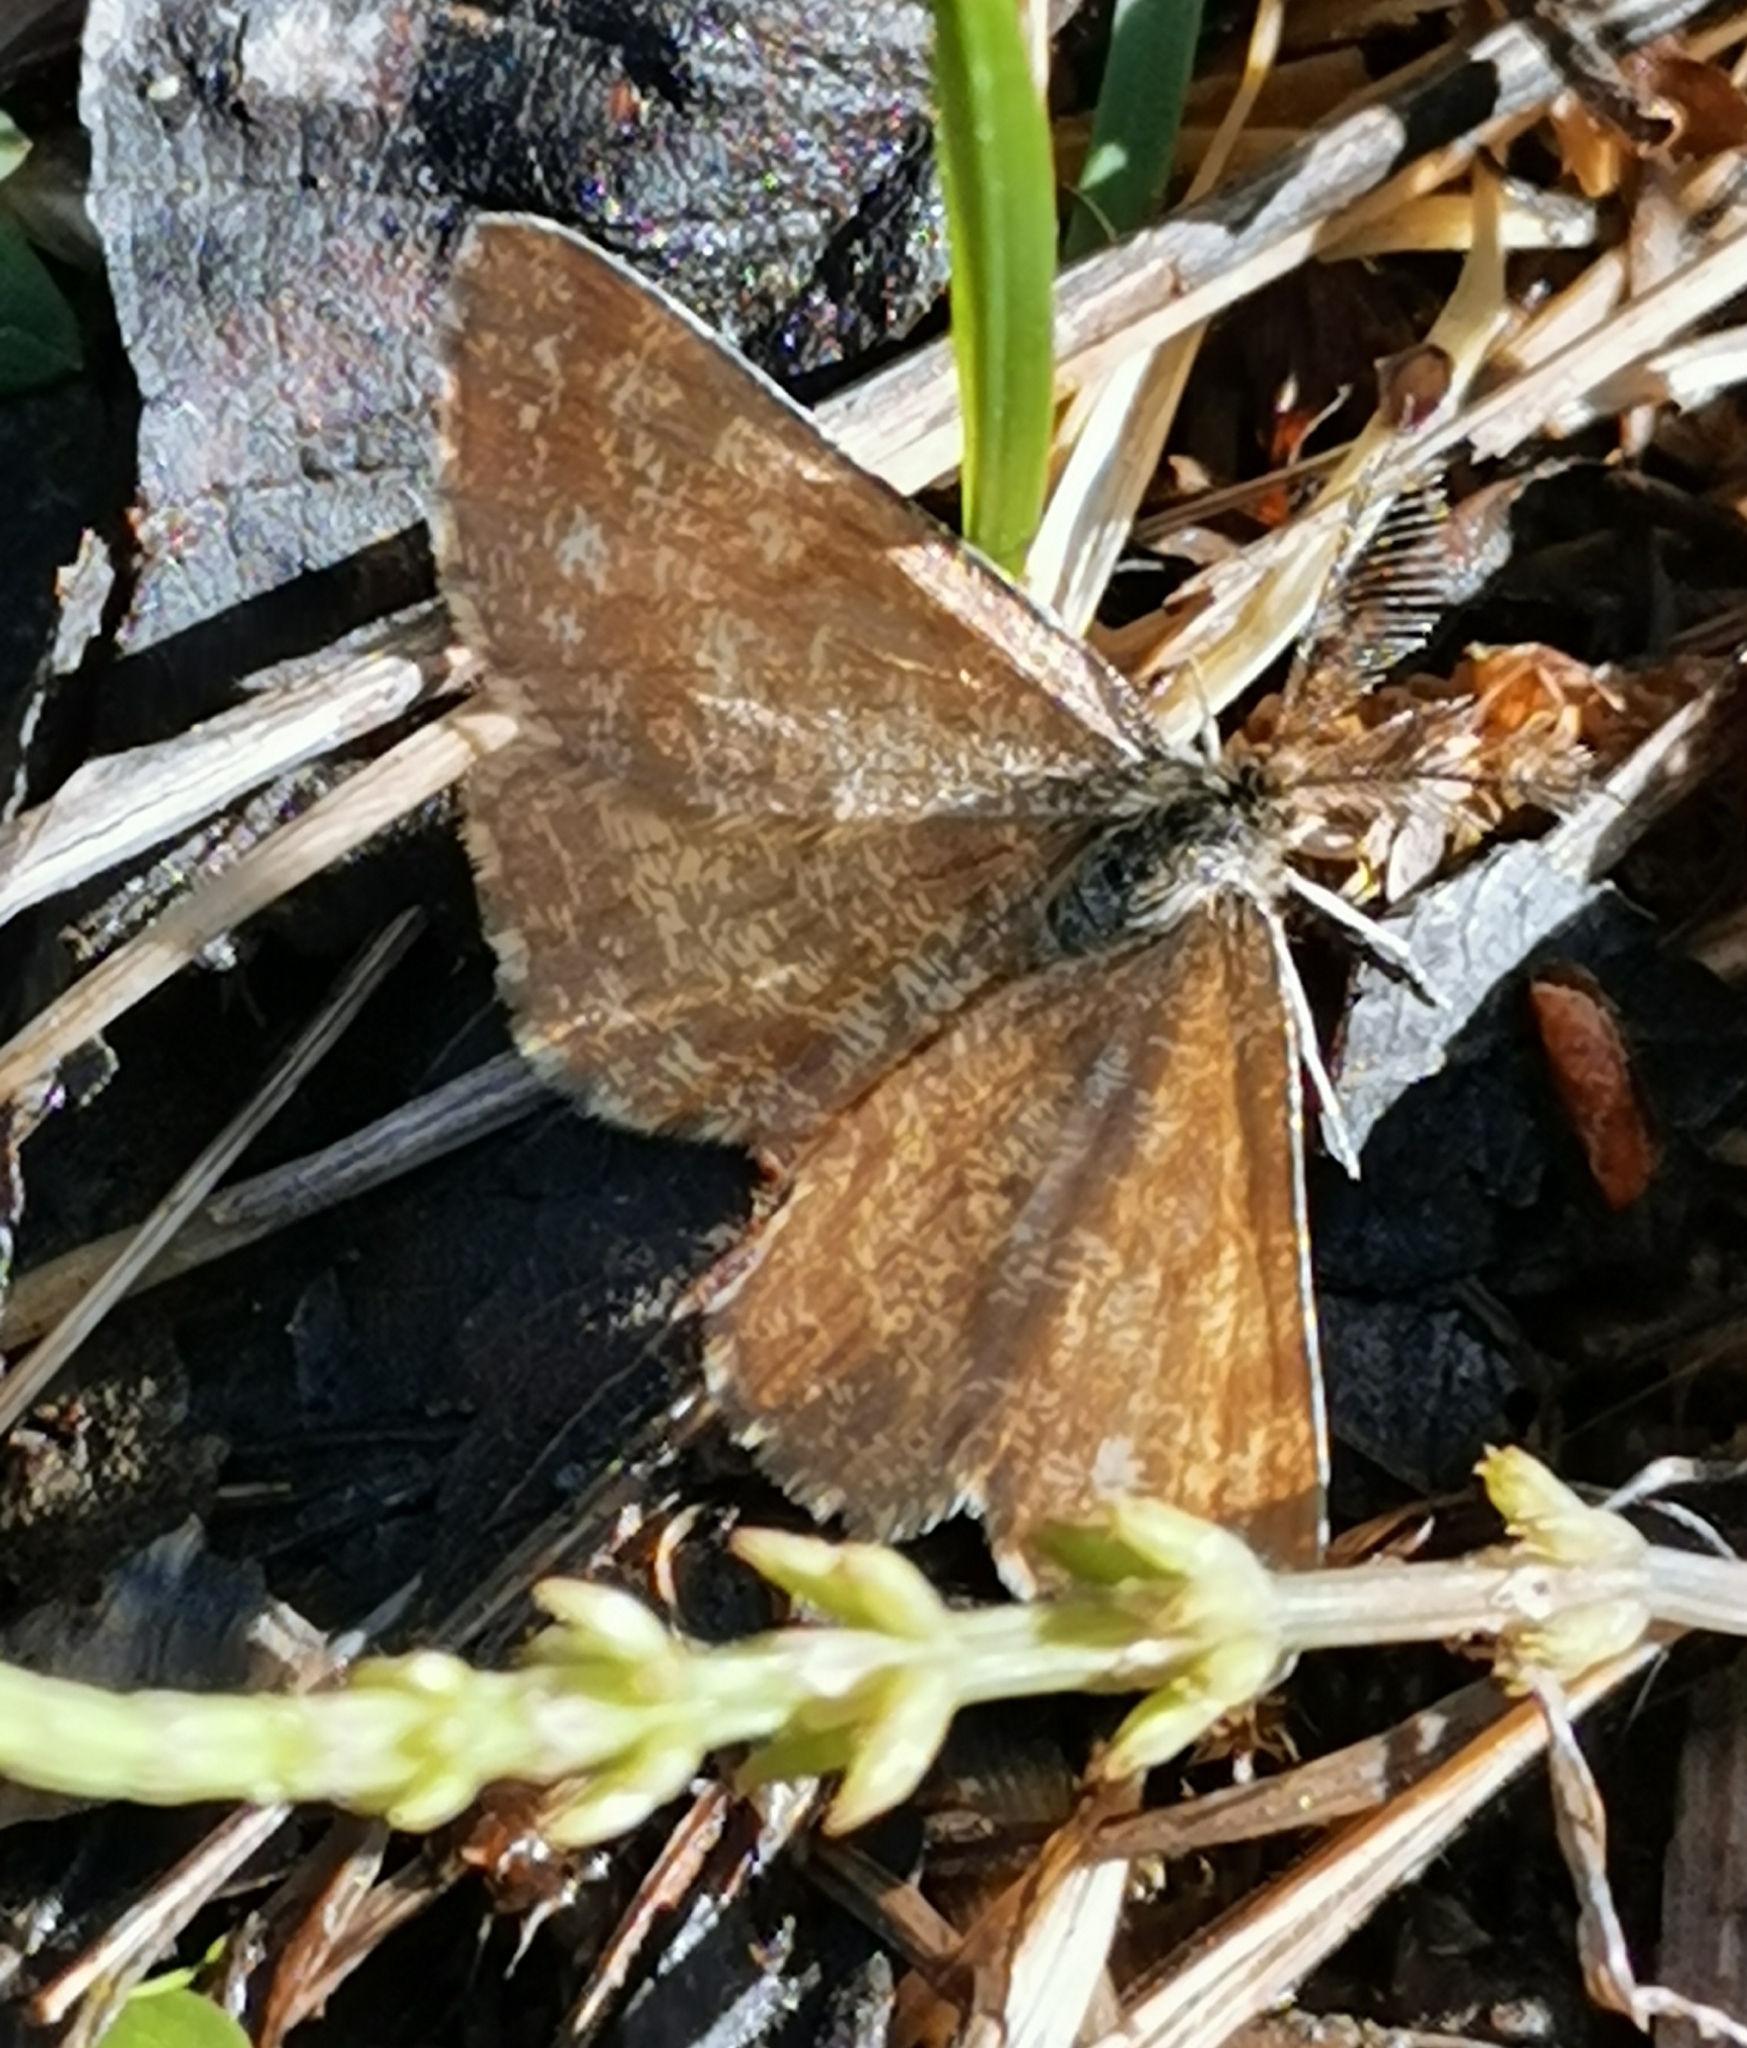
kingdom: Animalia
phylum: Arthropoda
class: Insecta
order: Lepidoptera
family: Geometridae
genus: Ematurga
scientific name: Ematurga atomaria
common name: Common heath
